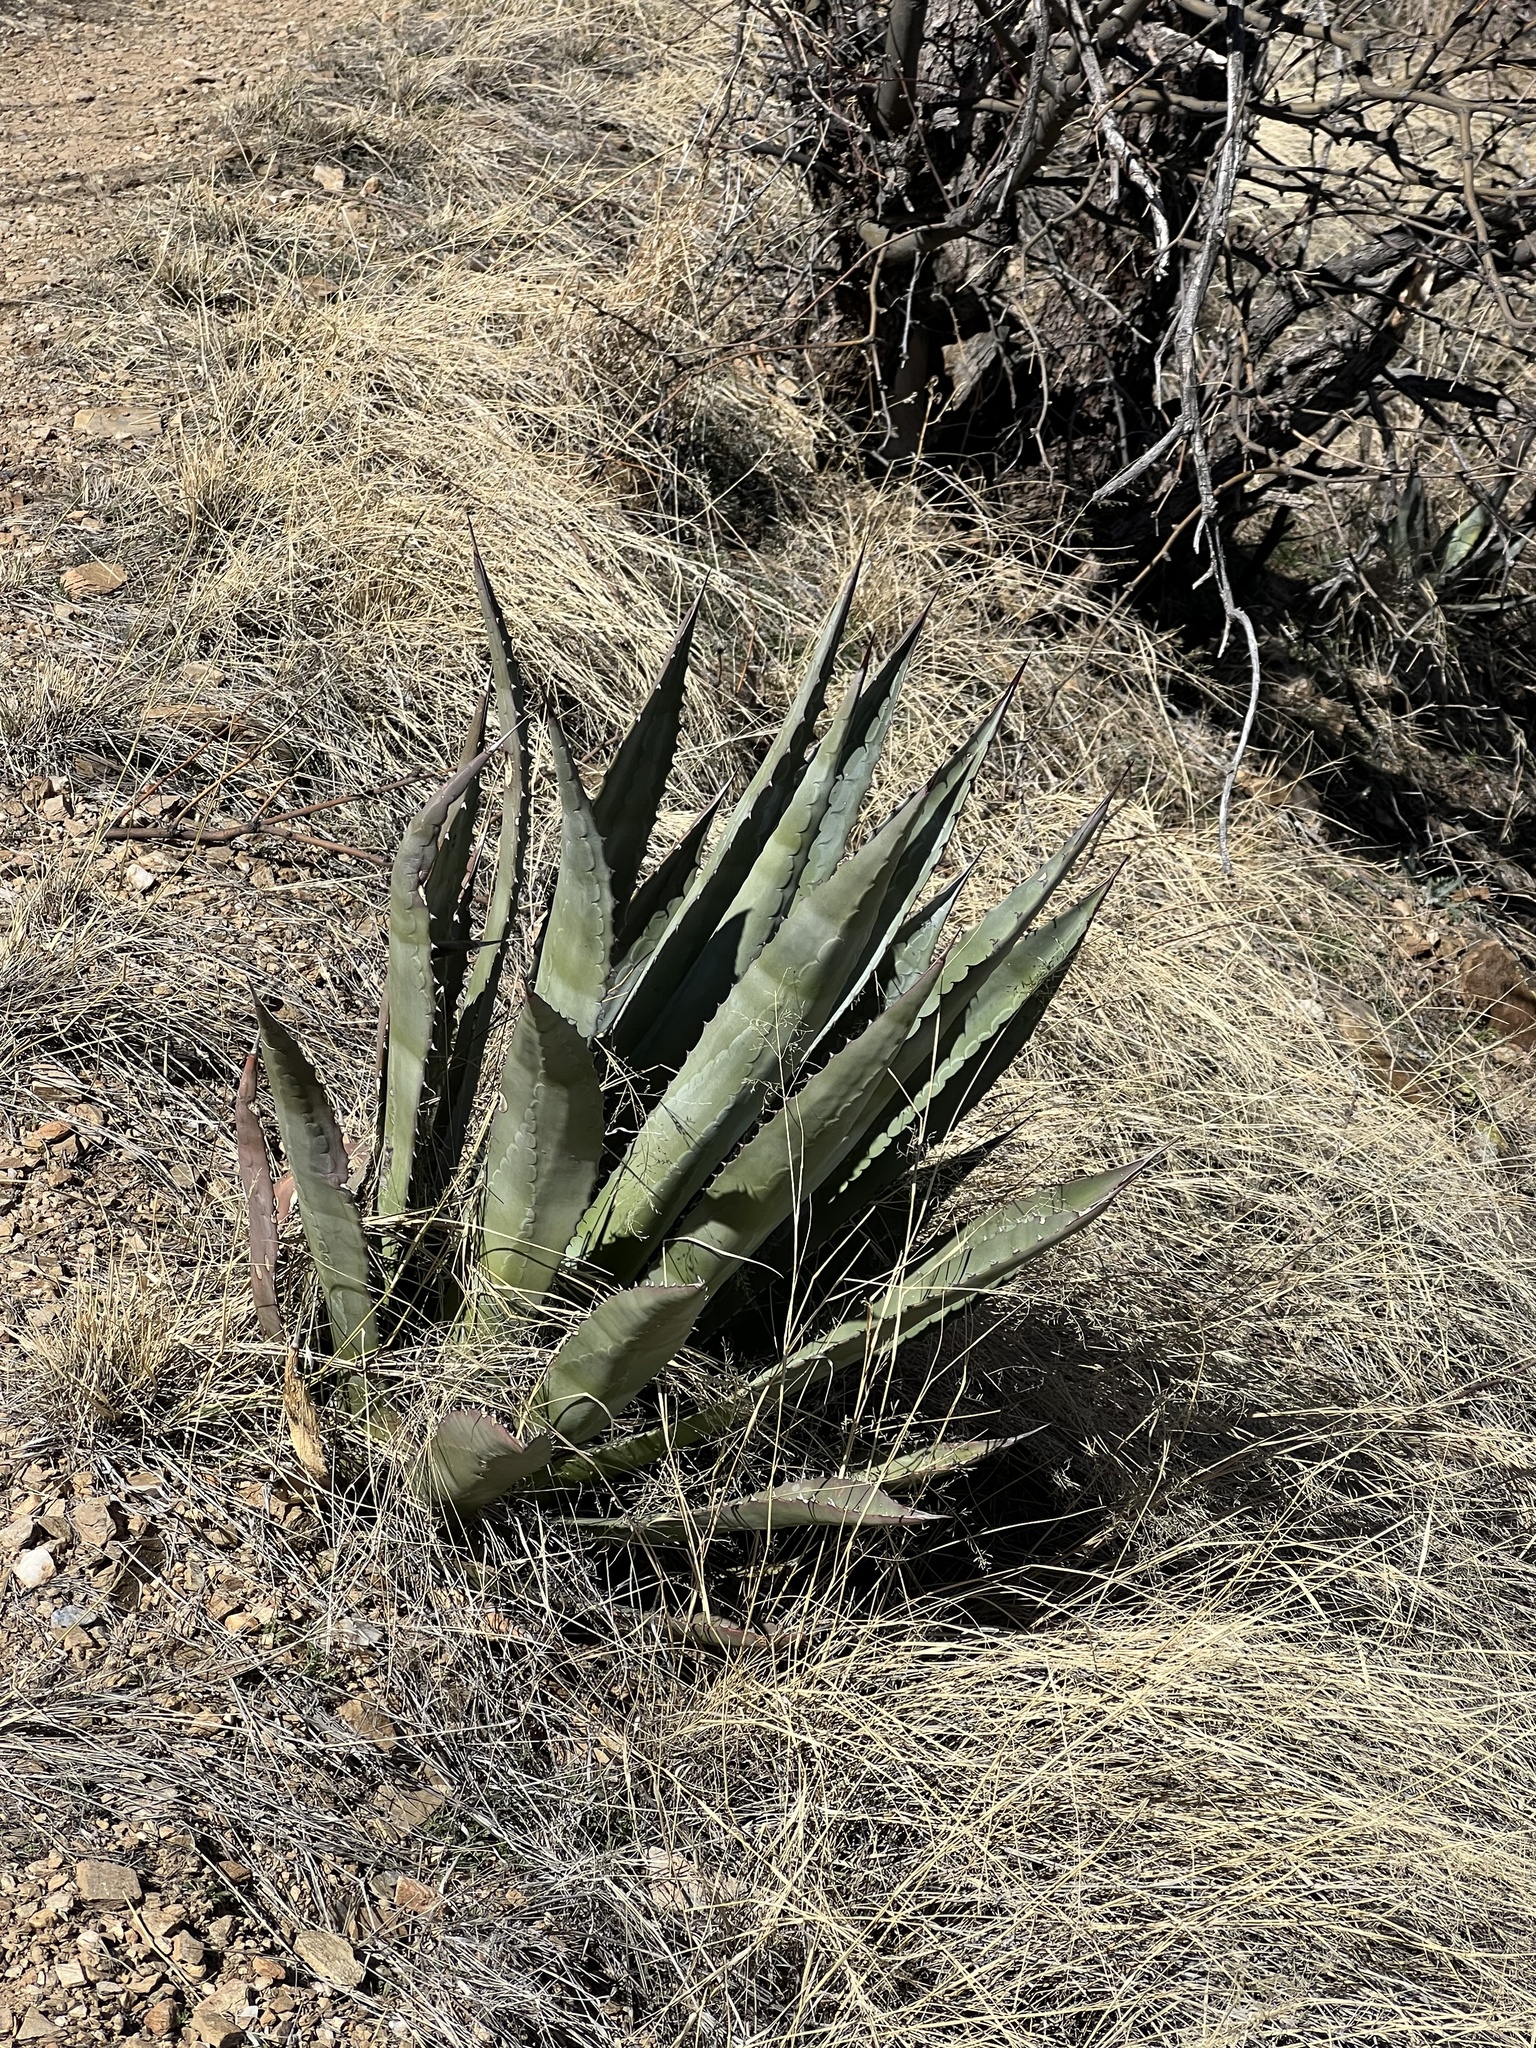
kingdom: Plantae
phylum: Tracheophyta
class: Liliopsida
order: Asparagales
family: Asparagaceae
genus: Agave
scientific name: Agave palmeri
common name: Palmer agave
